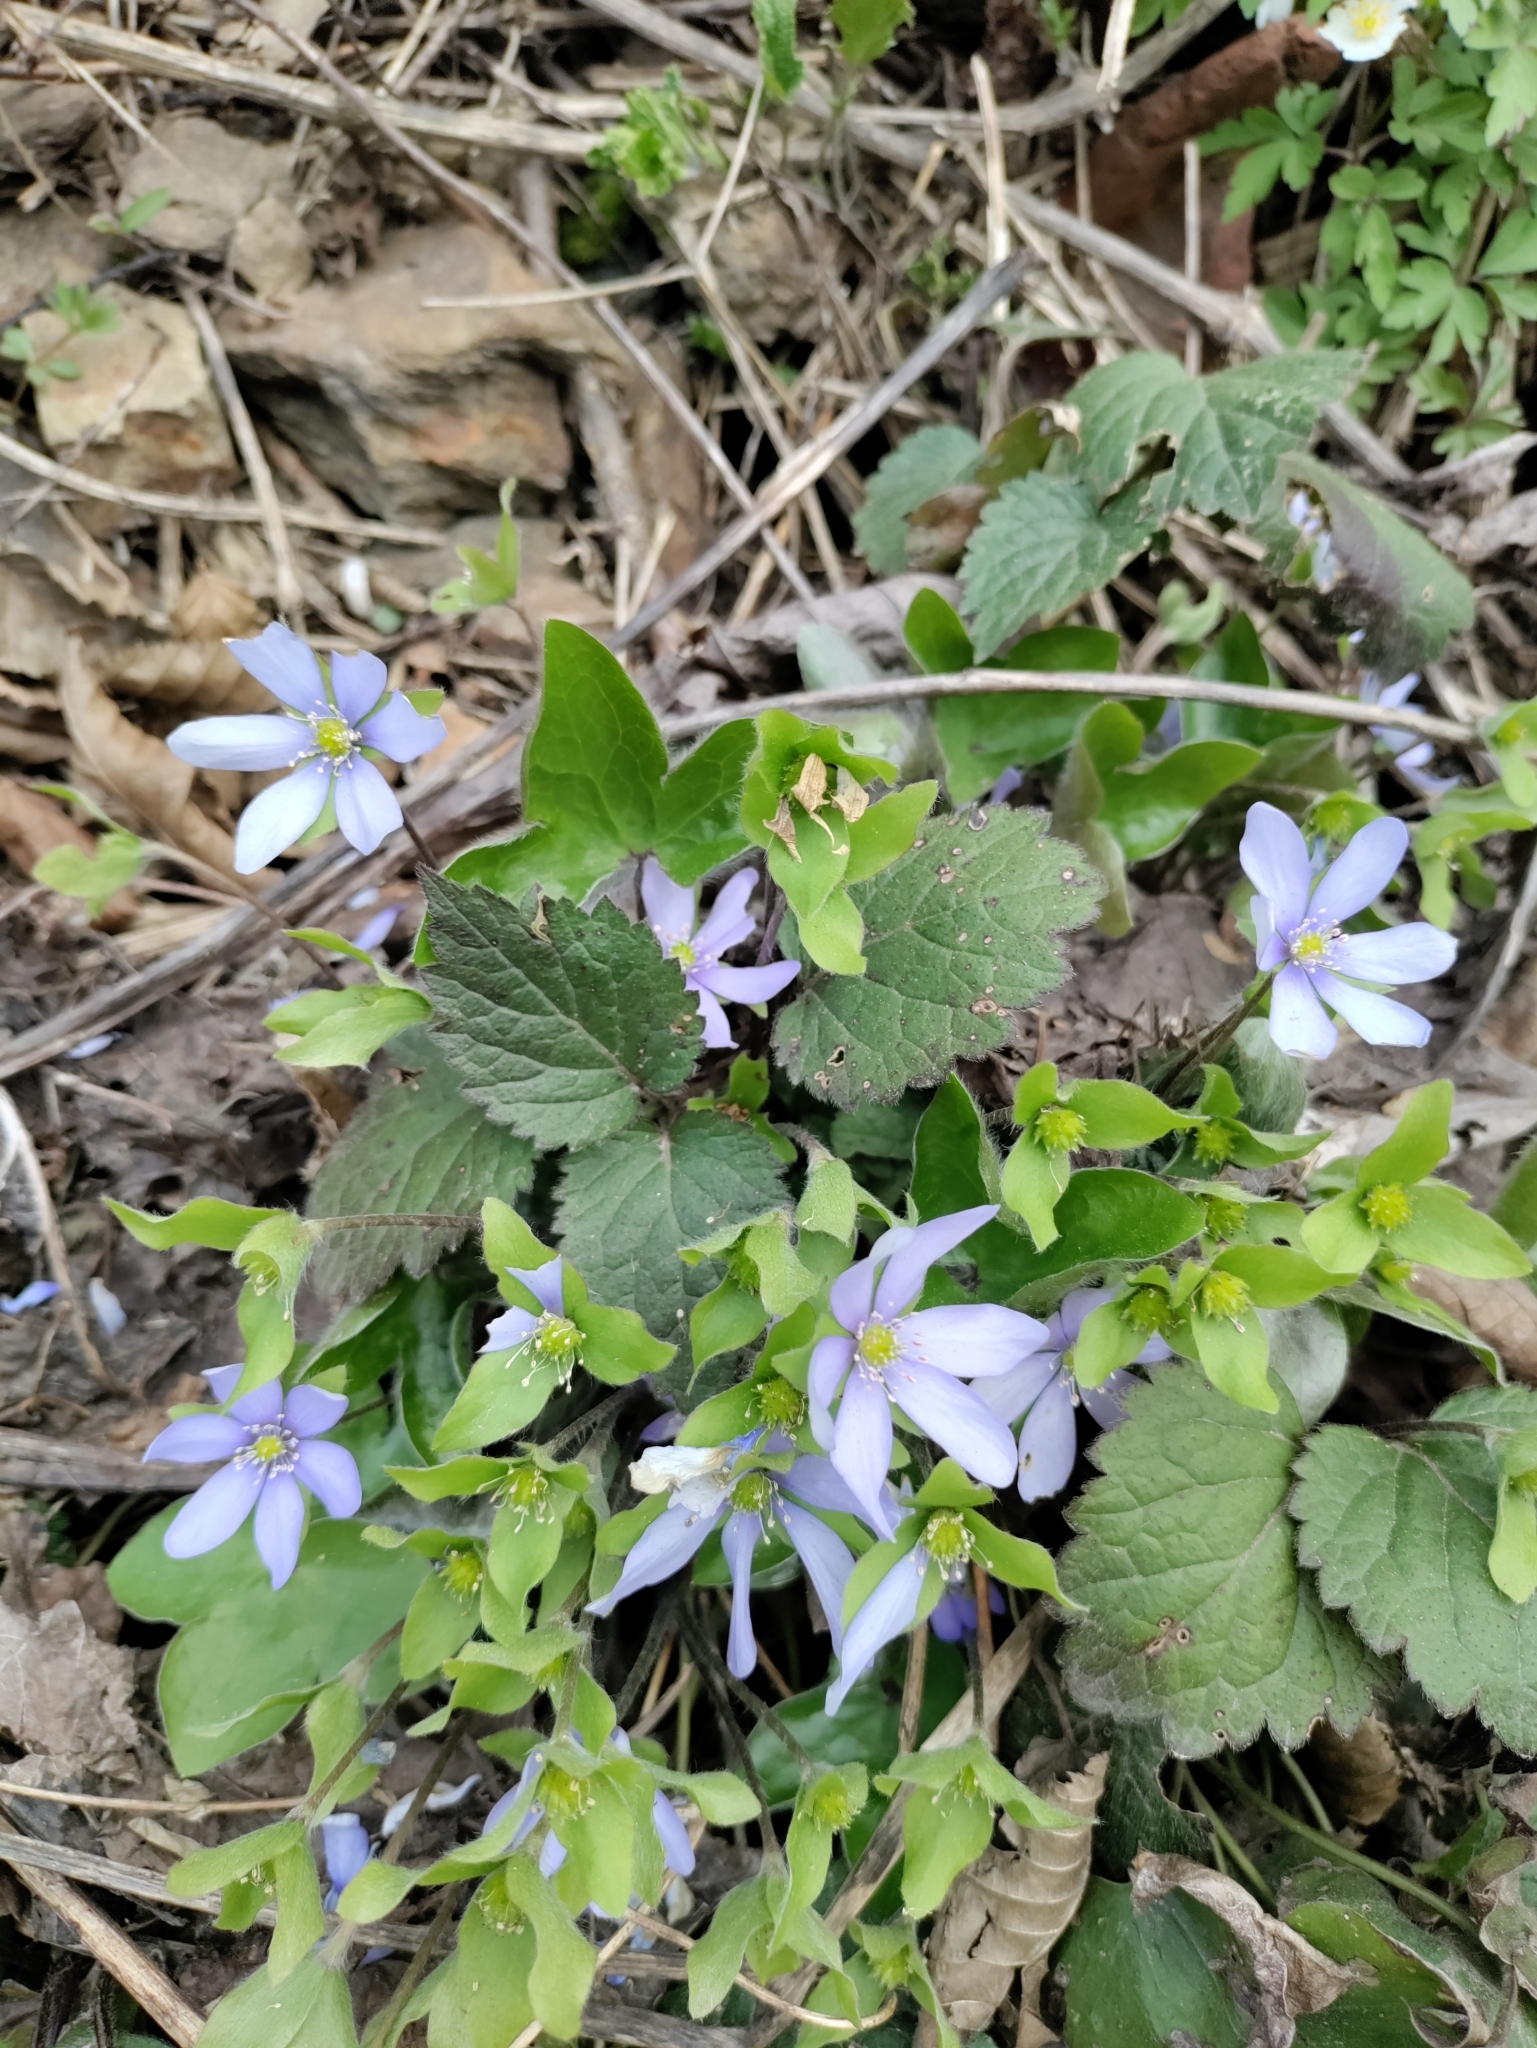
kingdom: Plantae
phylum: Tracheophyta
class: Magnoliopsida
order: Ranunculales
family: Ranunculaceae
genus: Hepatica
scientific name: Hepatica nobilis
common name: Liverleaf
